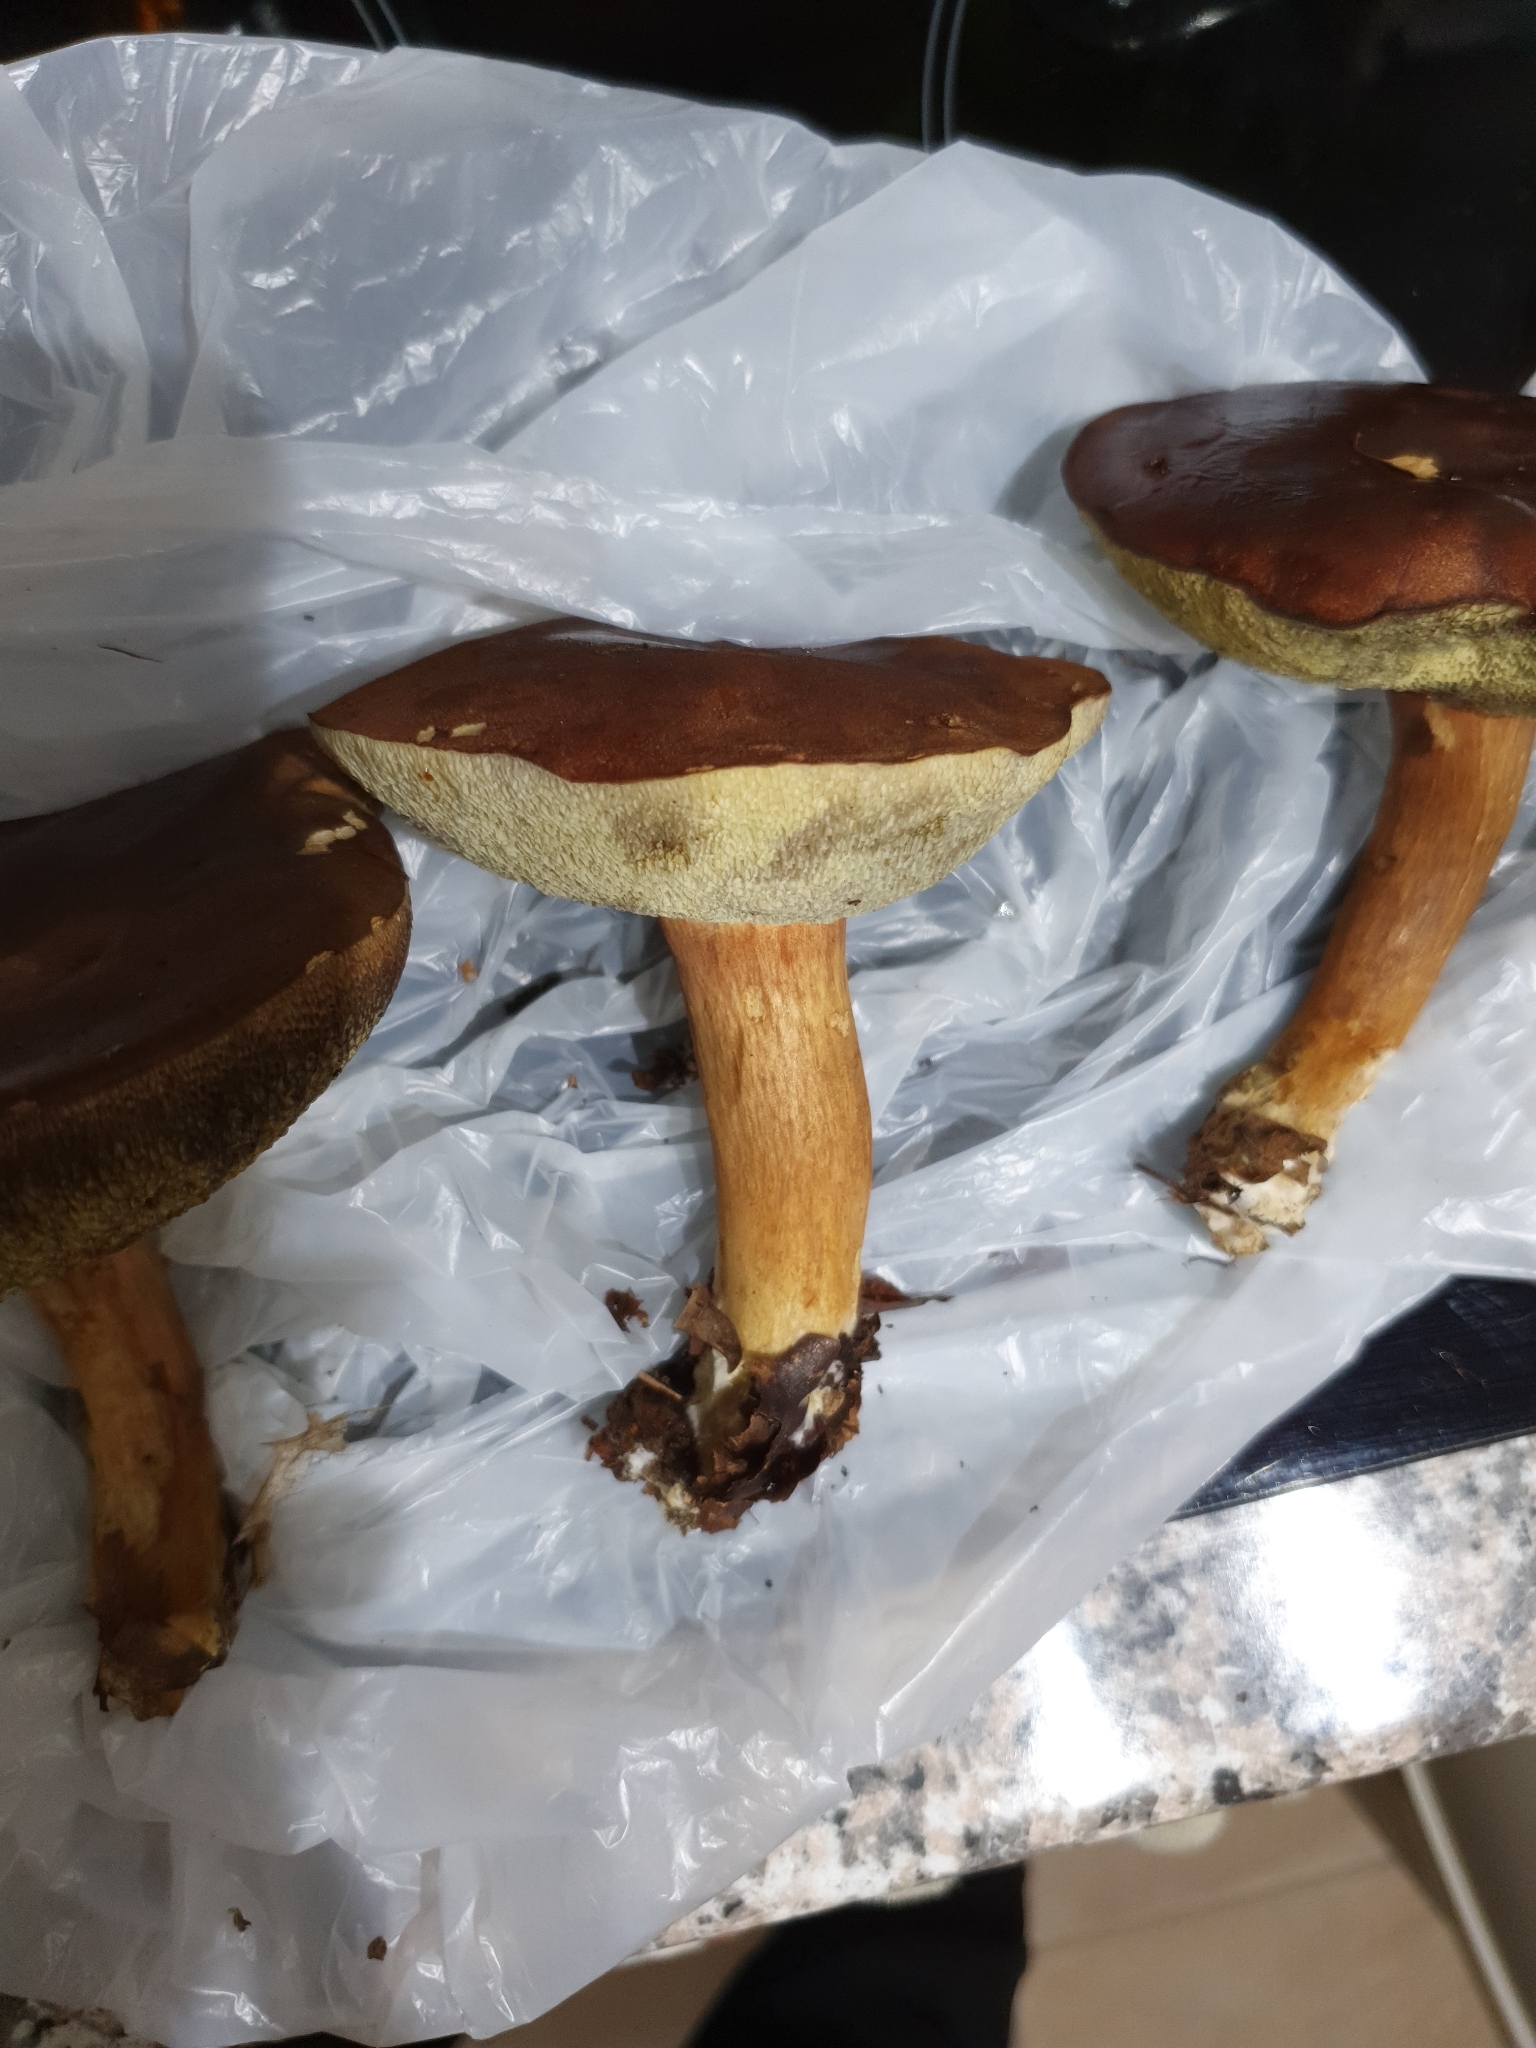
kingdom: Fungi
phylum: Basidiomycota
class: Agaricomycetes
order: Boletales
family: Boletaceae
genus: Imleria
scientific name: Imleria badia
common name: Bay bolete
